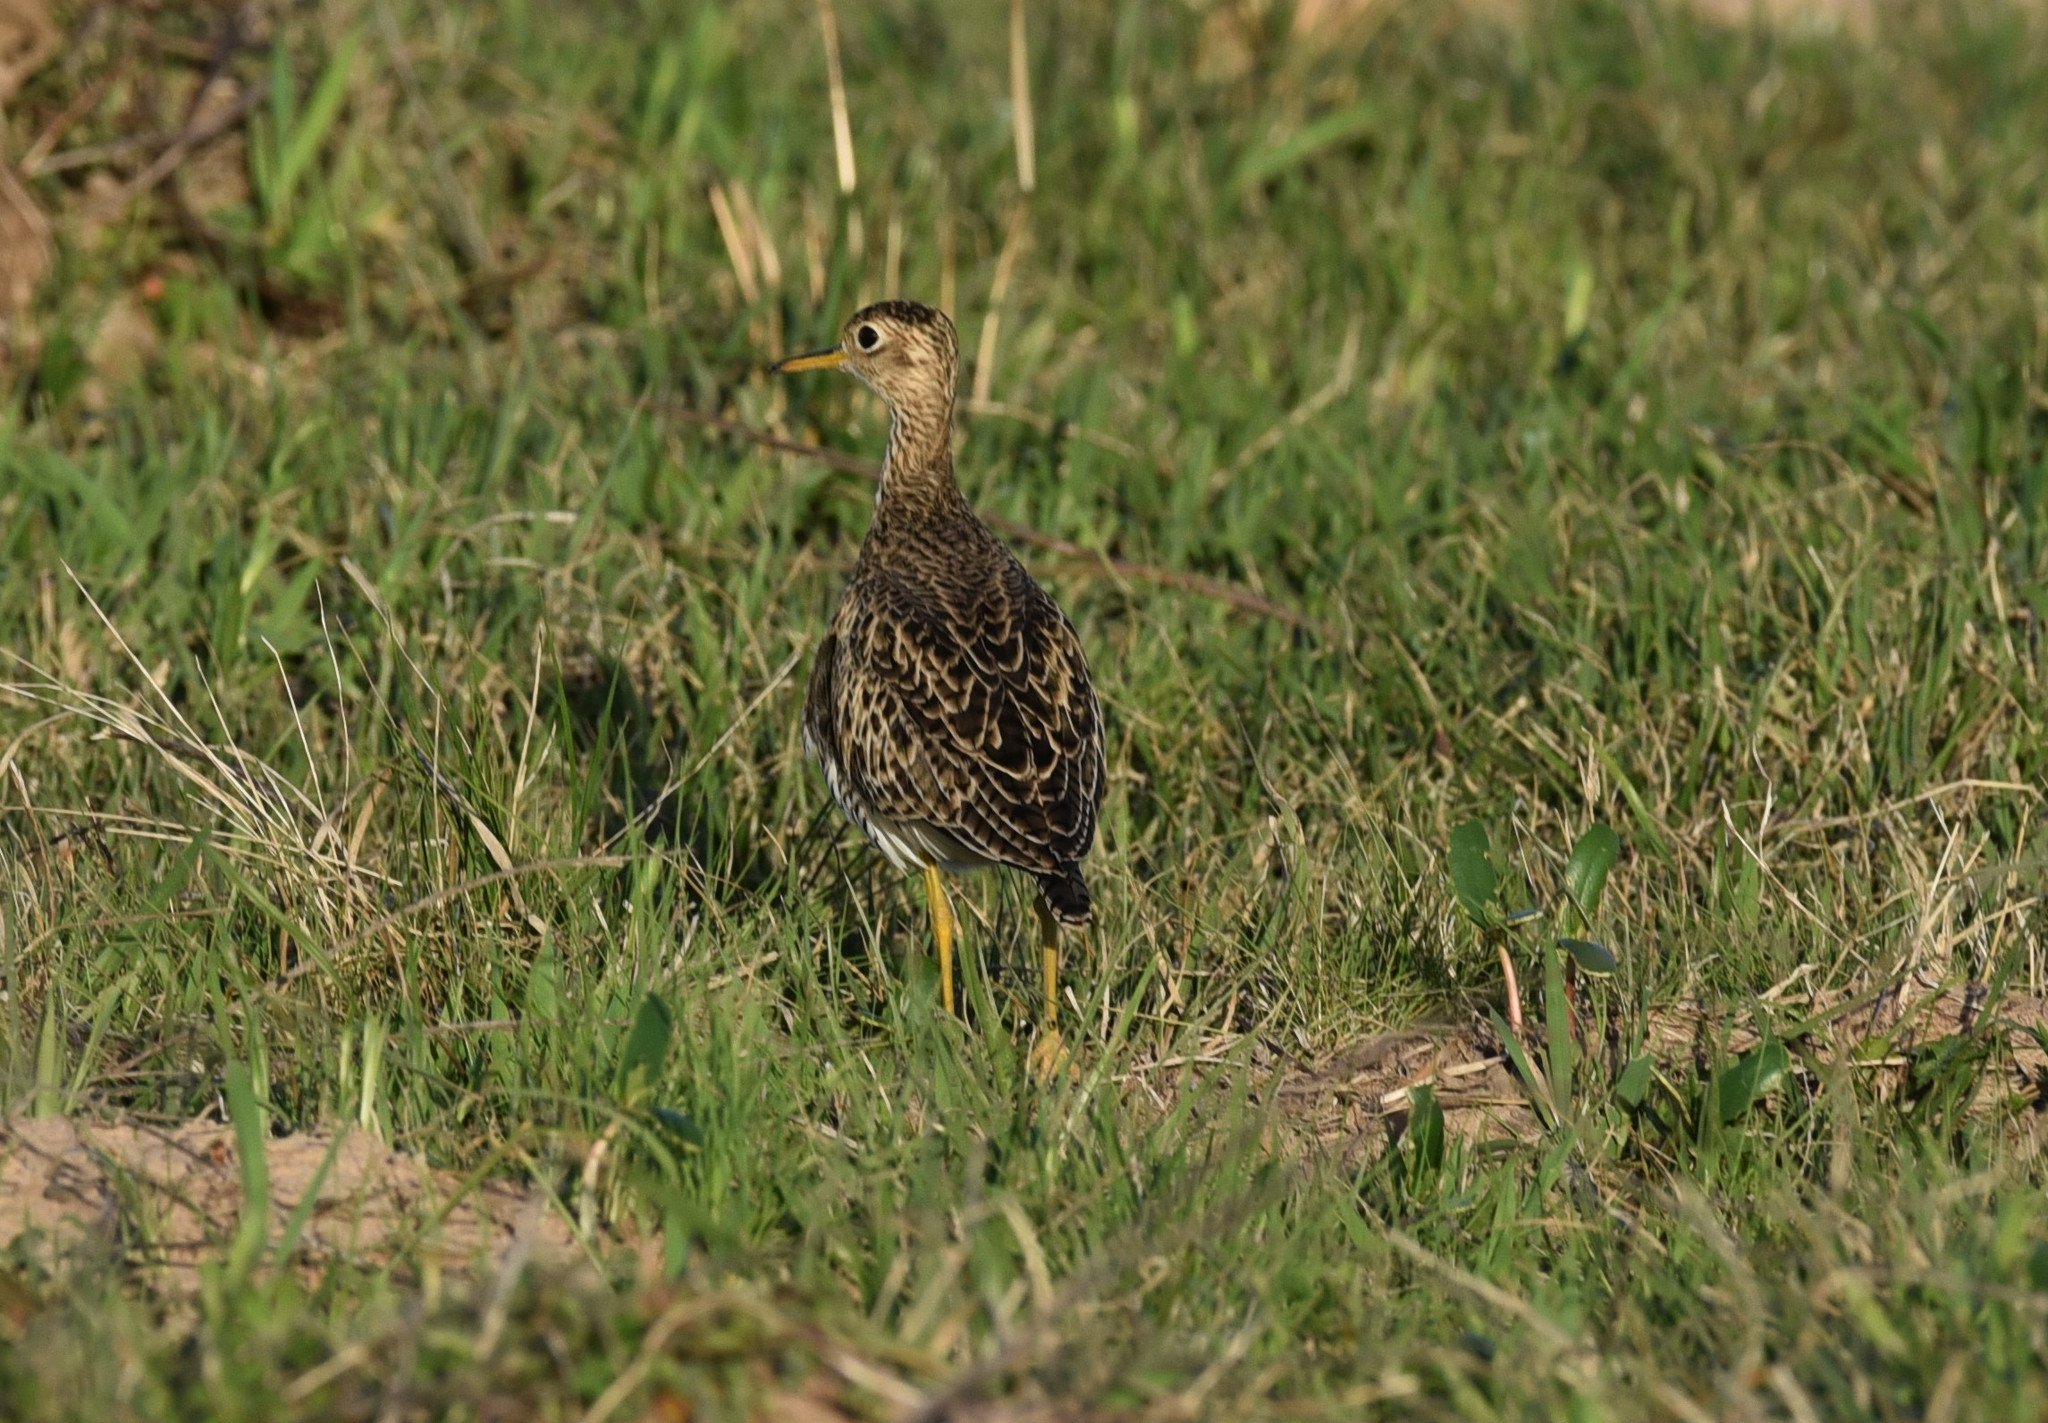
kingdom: Animalia
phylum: Chordata
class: Aves
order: Charadriiformes
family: Scolopacidae
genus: Bartramia
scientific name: Bartramia longicauda
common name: Upland sandpiper
